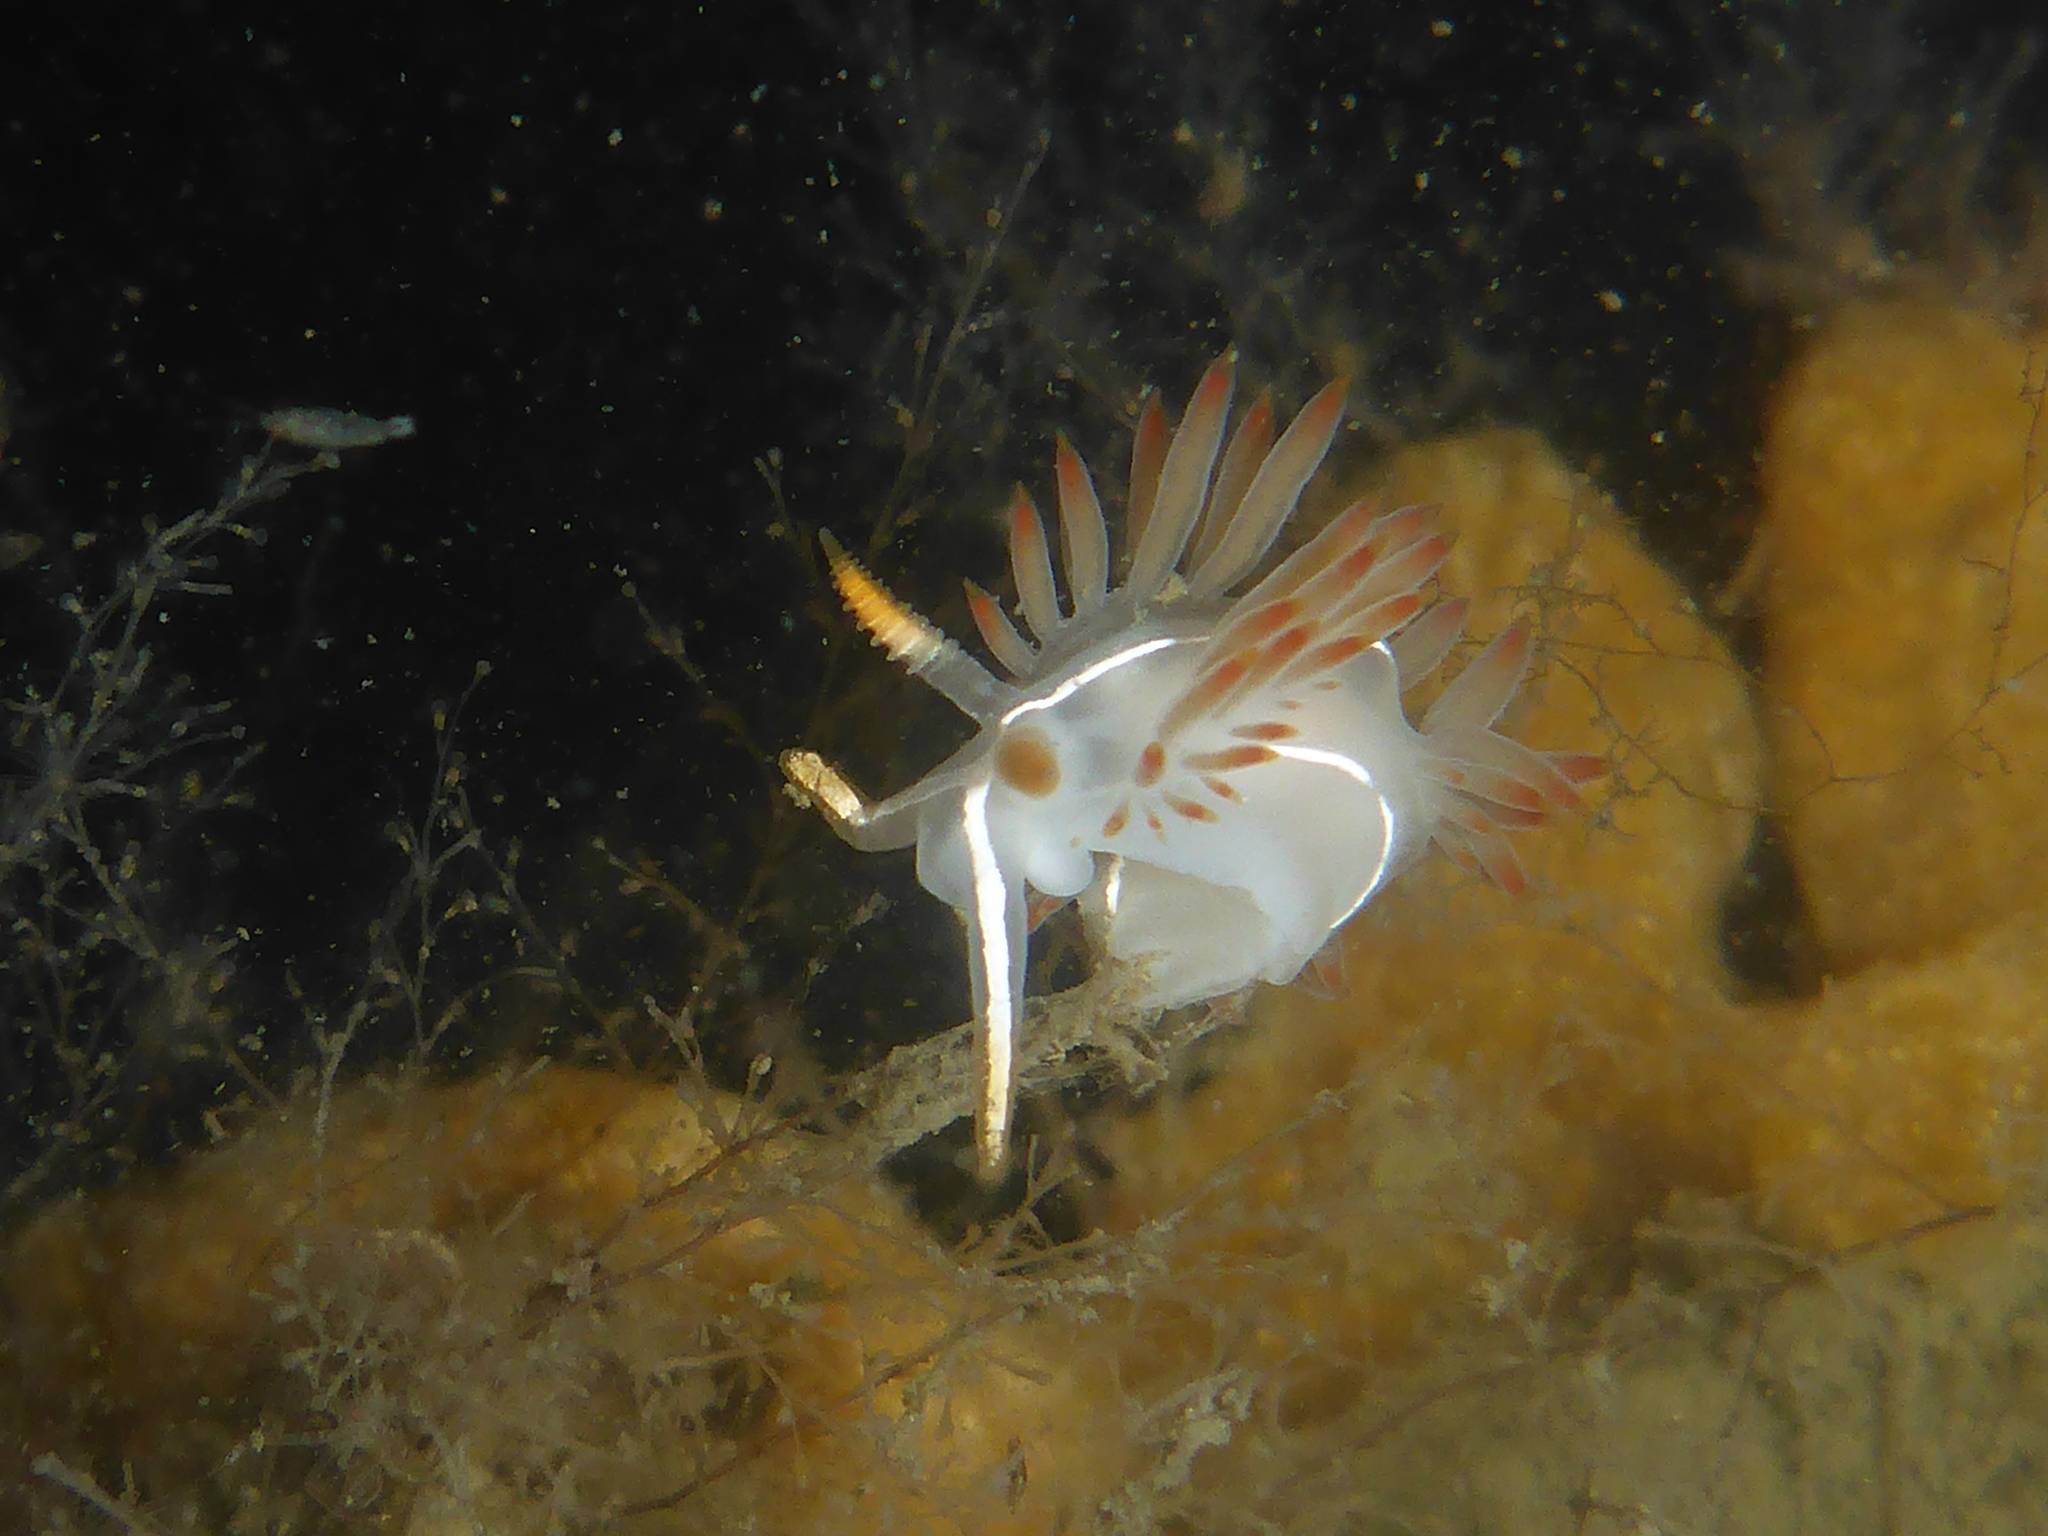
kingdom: Animalia
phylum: Mollusca
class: Gastropoda
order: Nudibranchia
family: Coryphellidae
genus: Coryphella
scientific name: Coryphella trilineata
